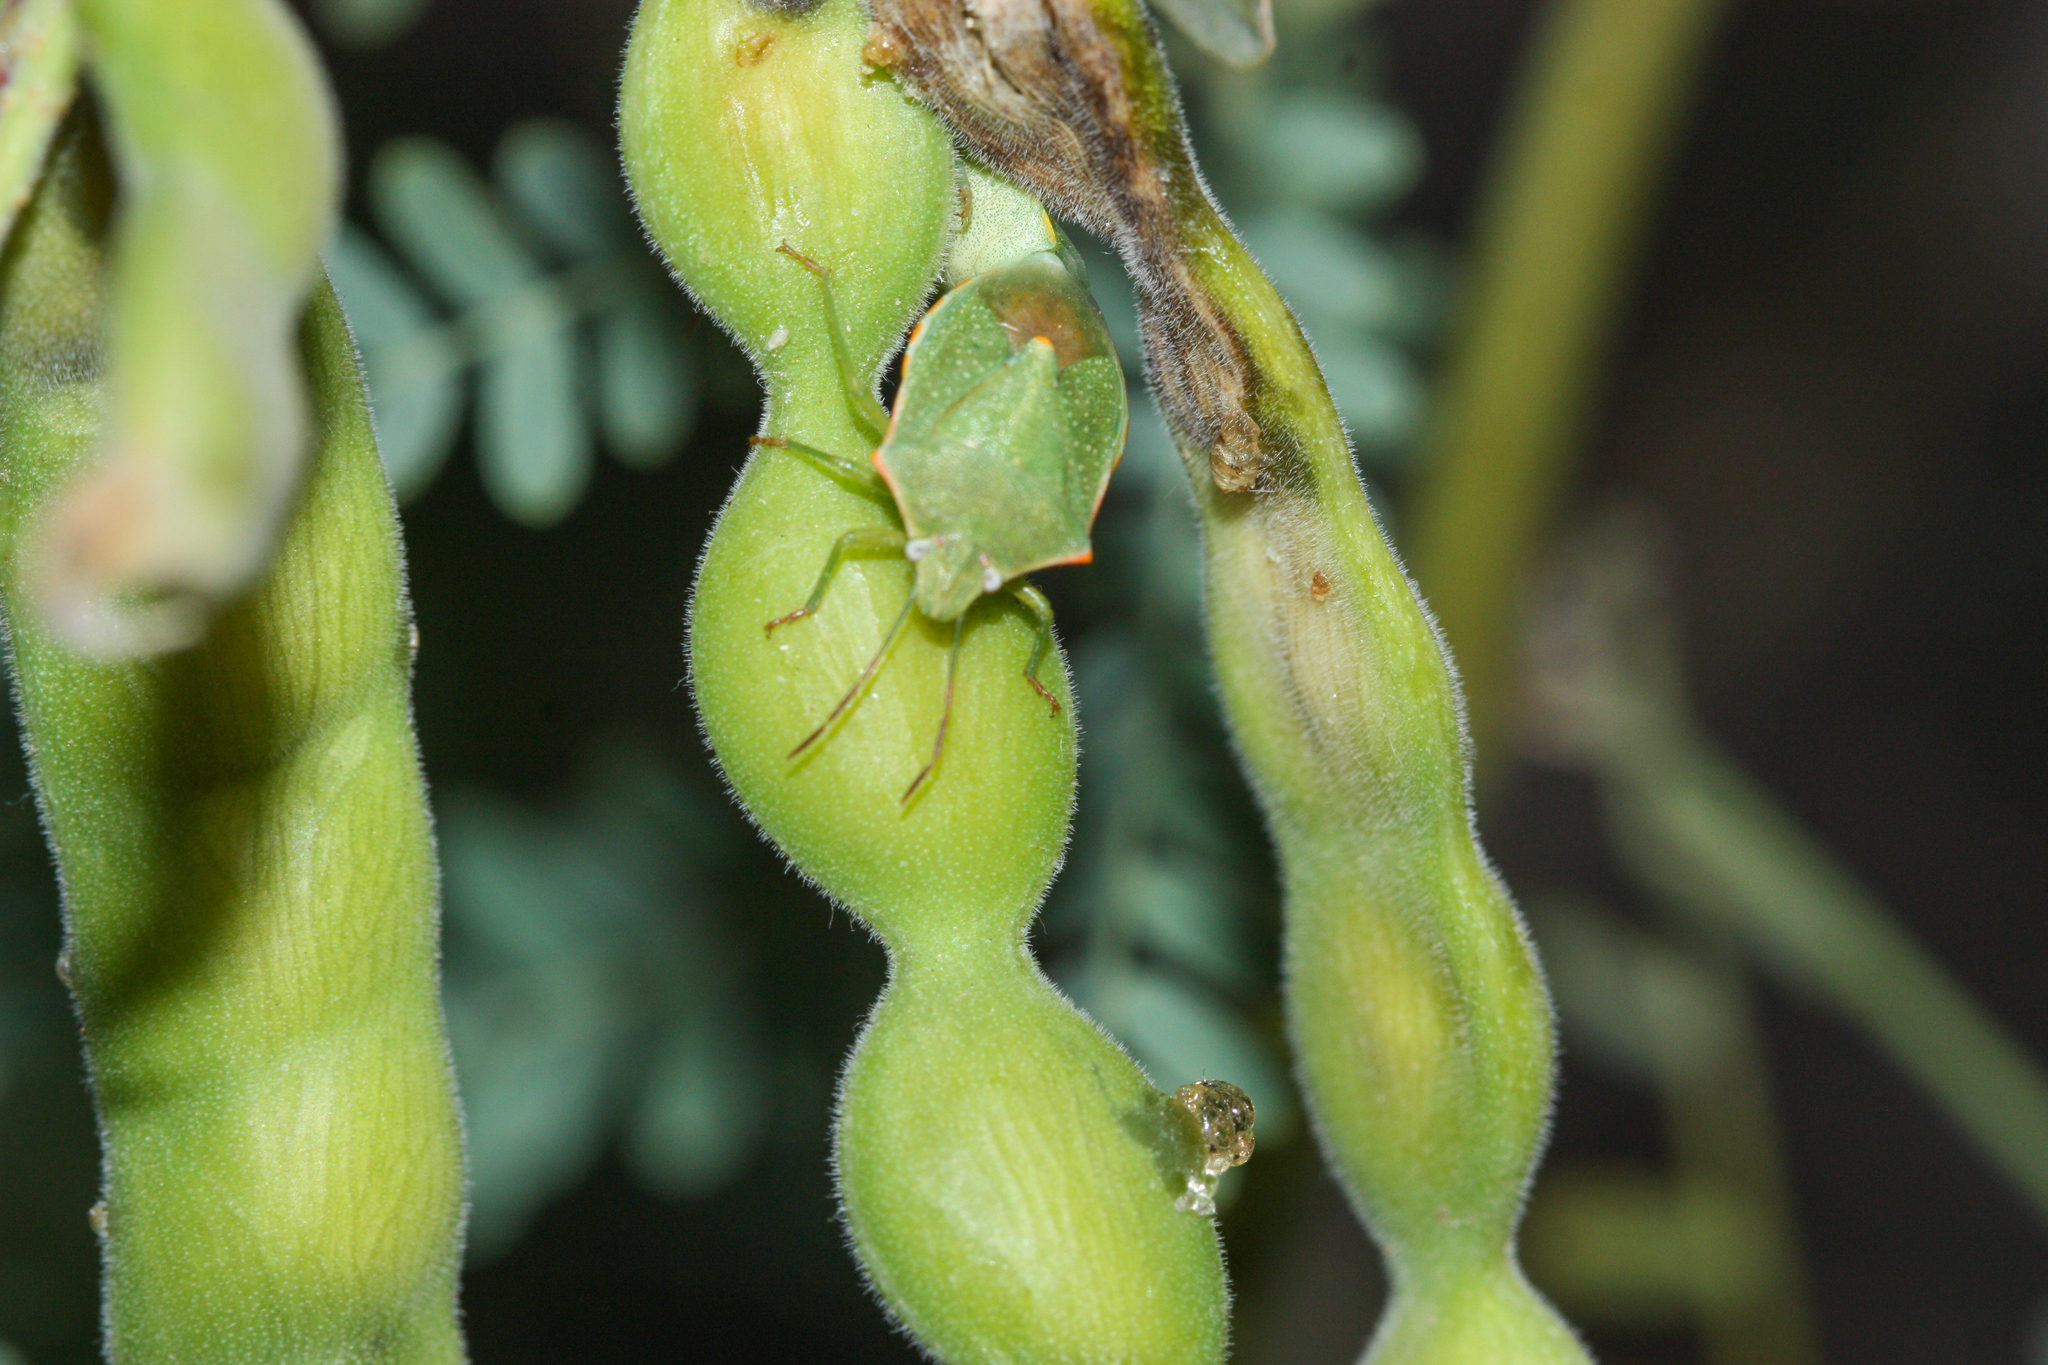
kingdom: Animalia
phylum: Arthropoda
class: Insecta
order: Hemiptera
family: Pentatomidae
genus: Thyanta
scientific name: Thyanta accerra
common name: Stink bug
